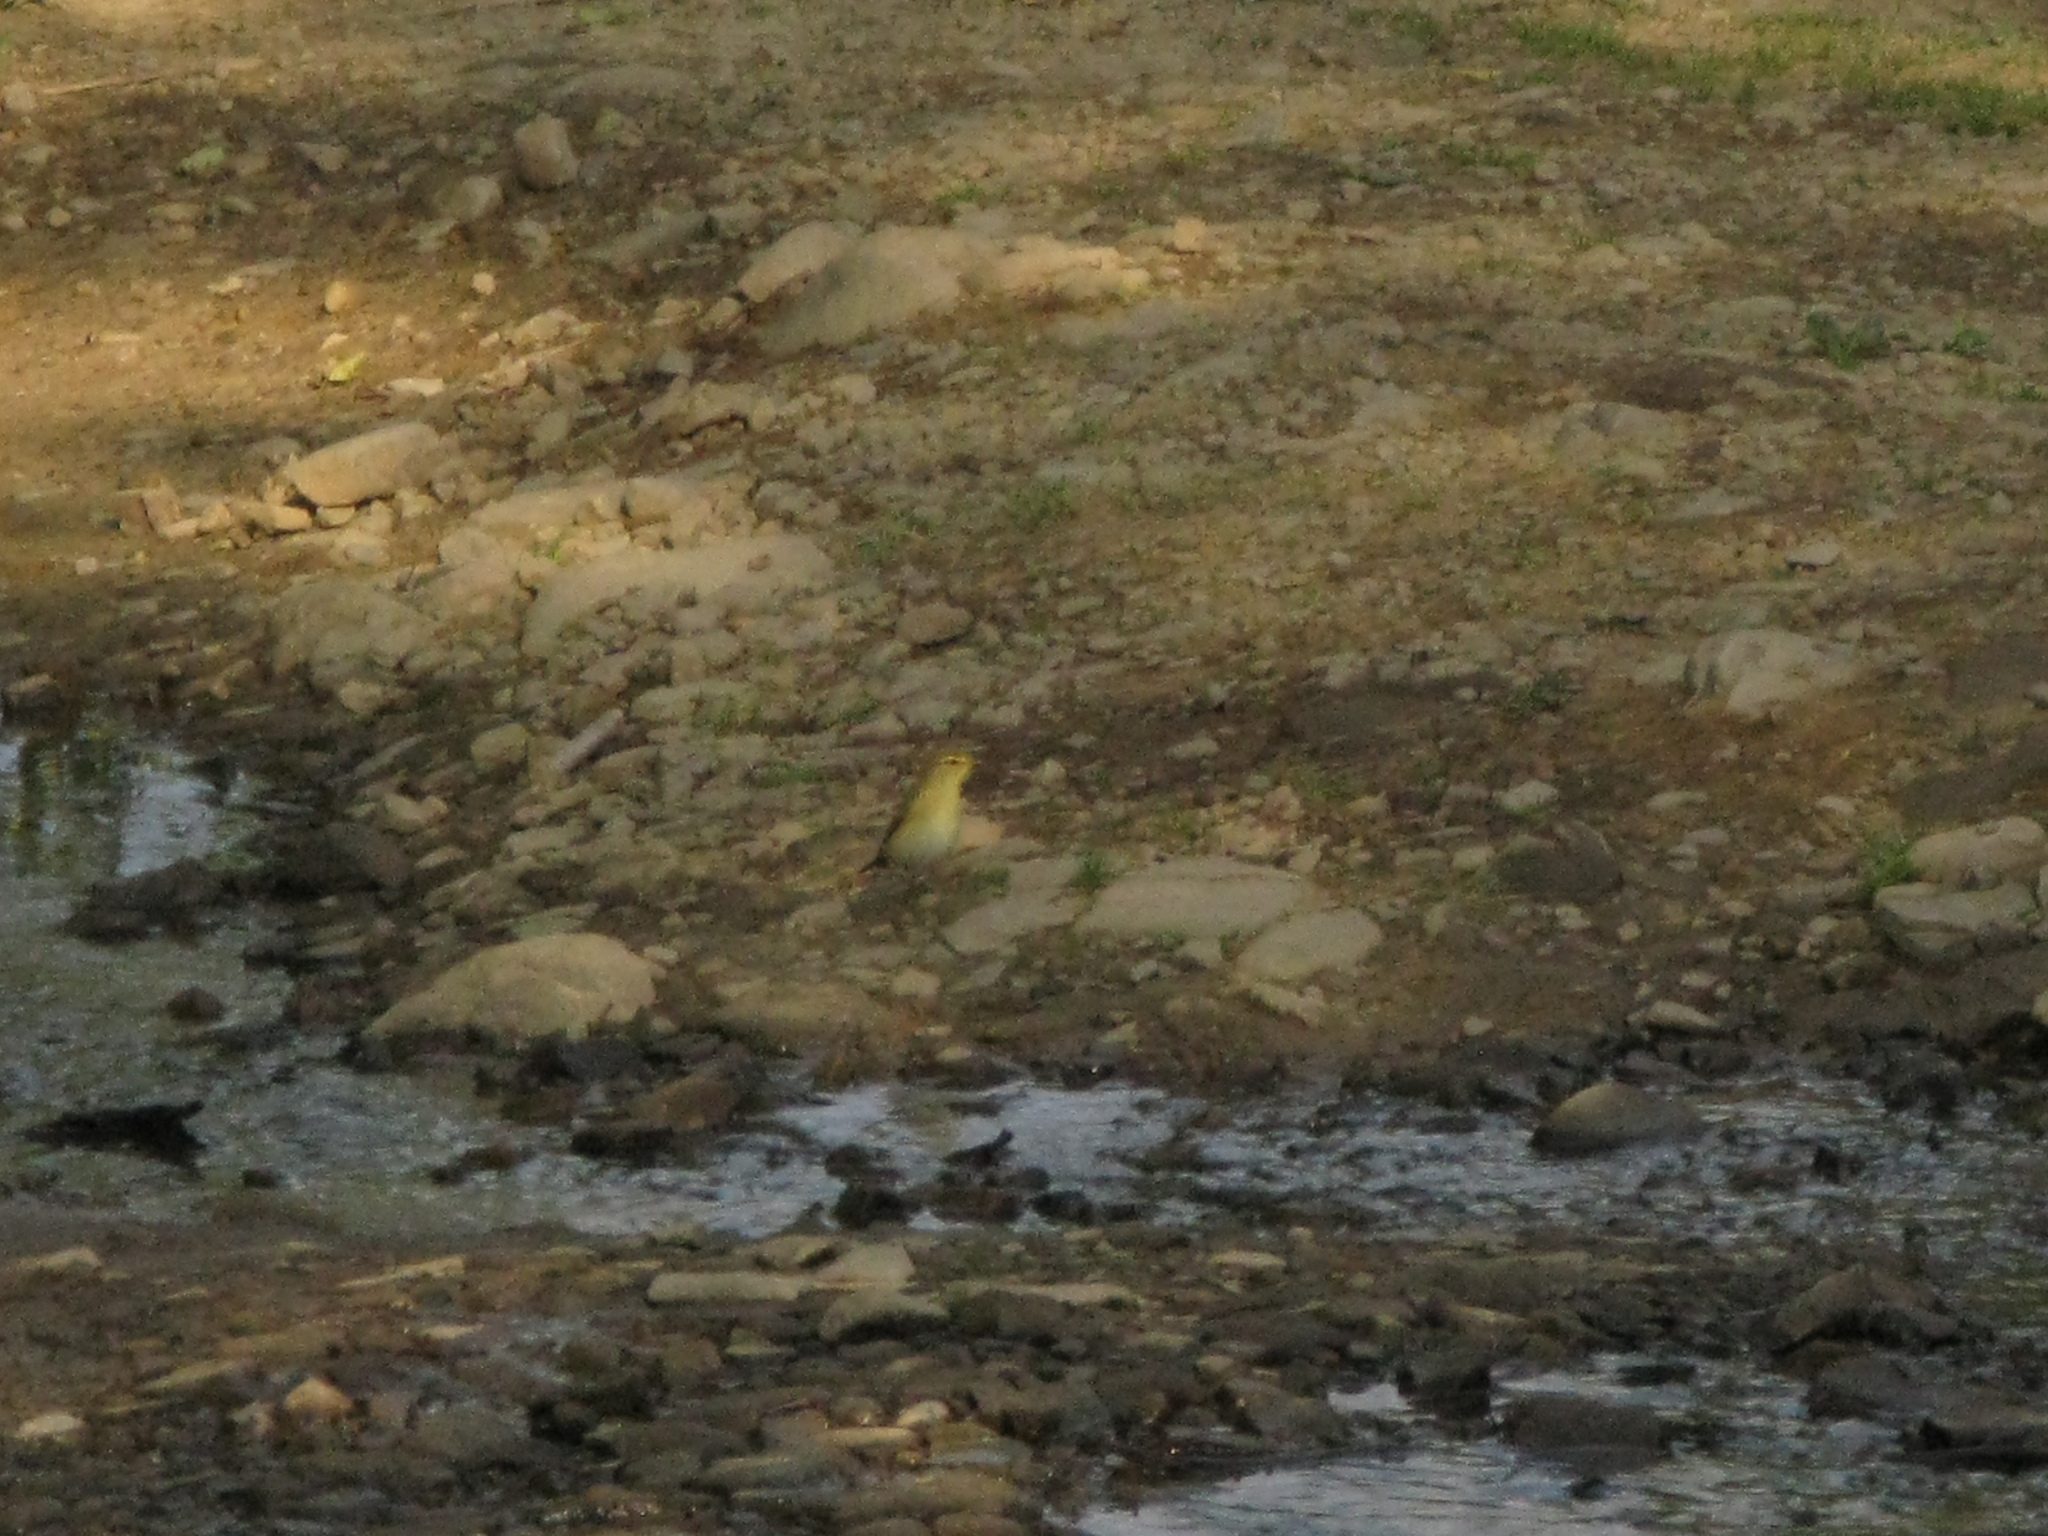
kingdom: Animalia
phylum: Chordata
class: Aves
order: Passeriformes
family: Phylloscopidae
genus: Phylloscopus
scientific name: Phylloscopus
